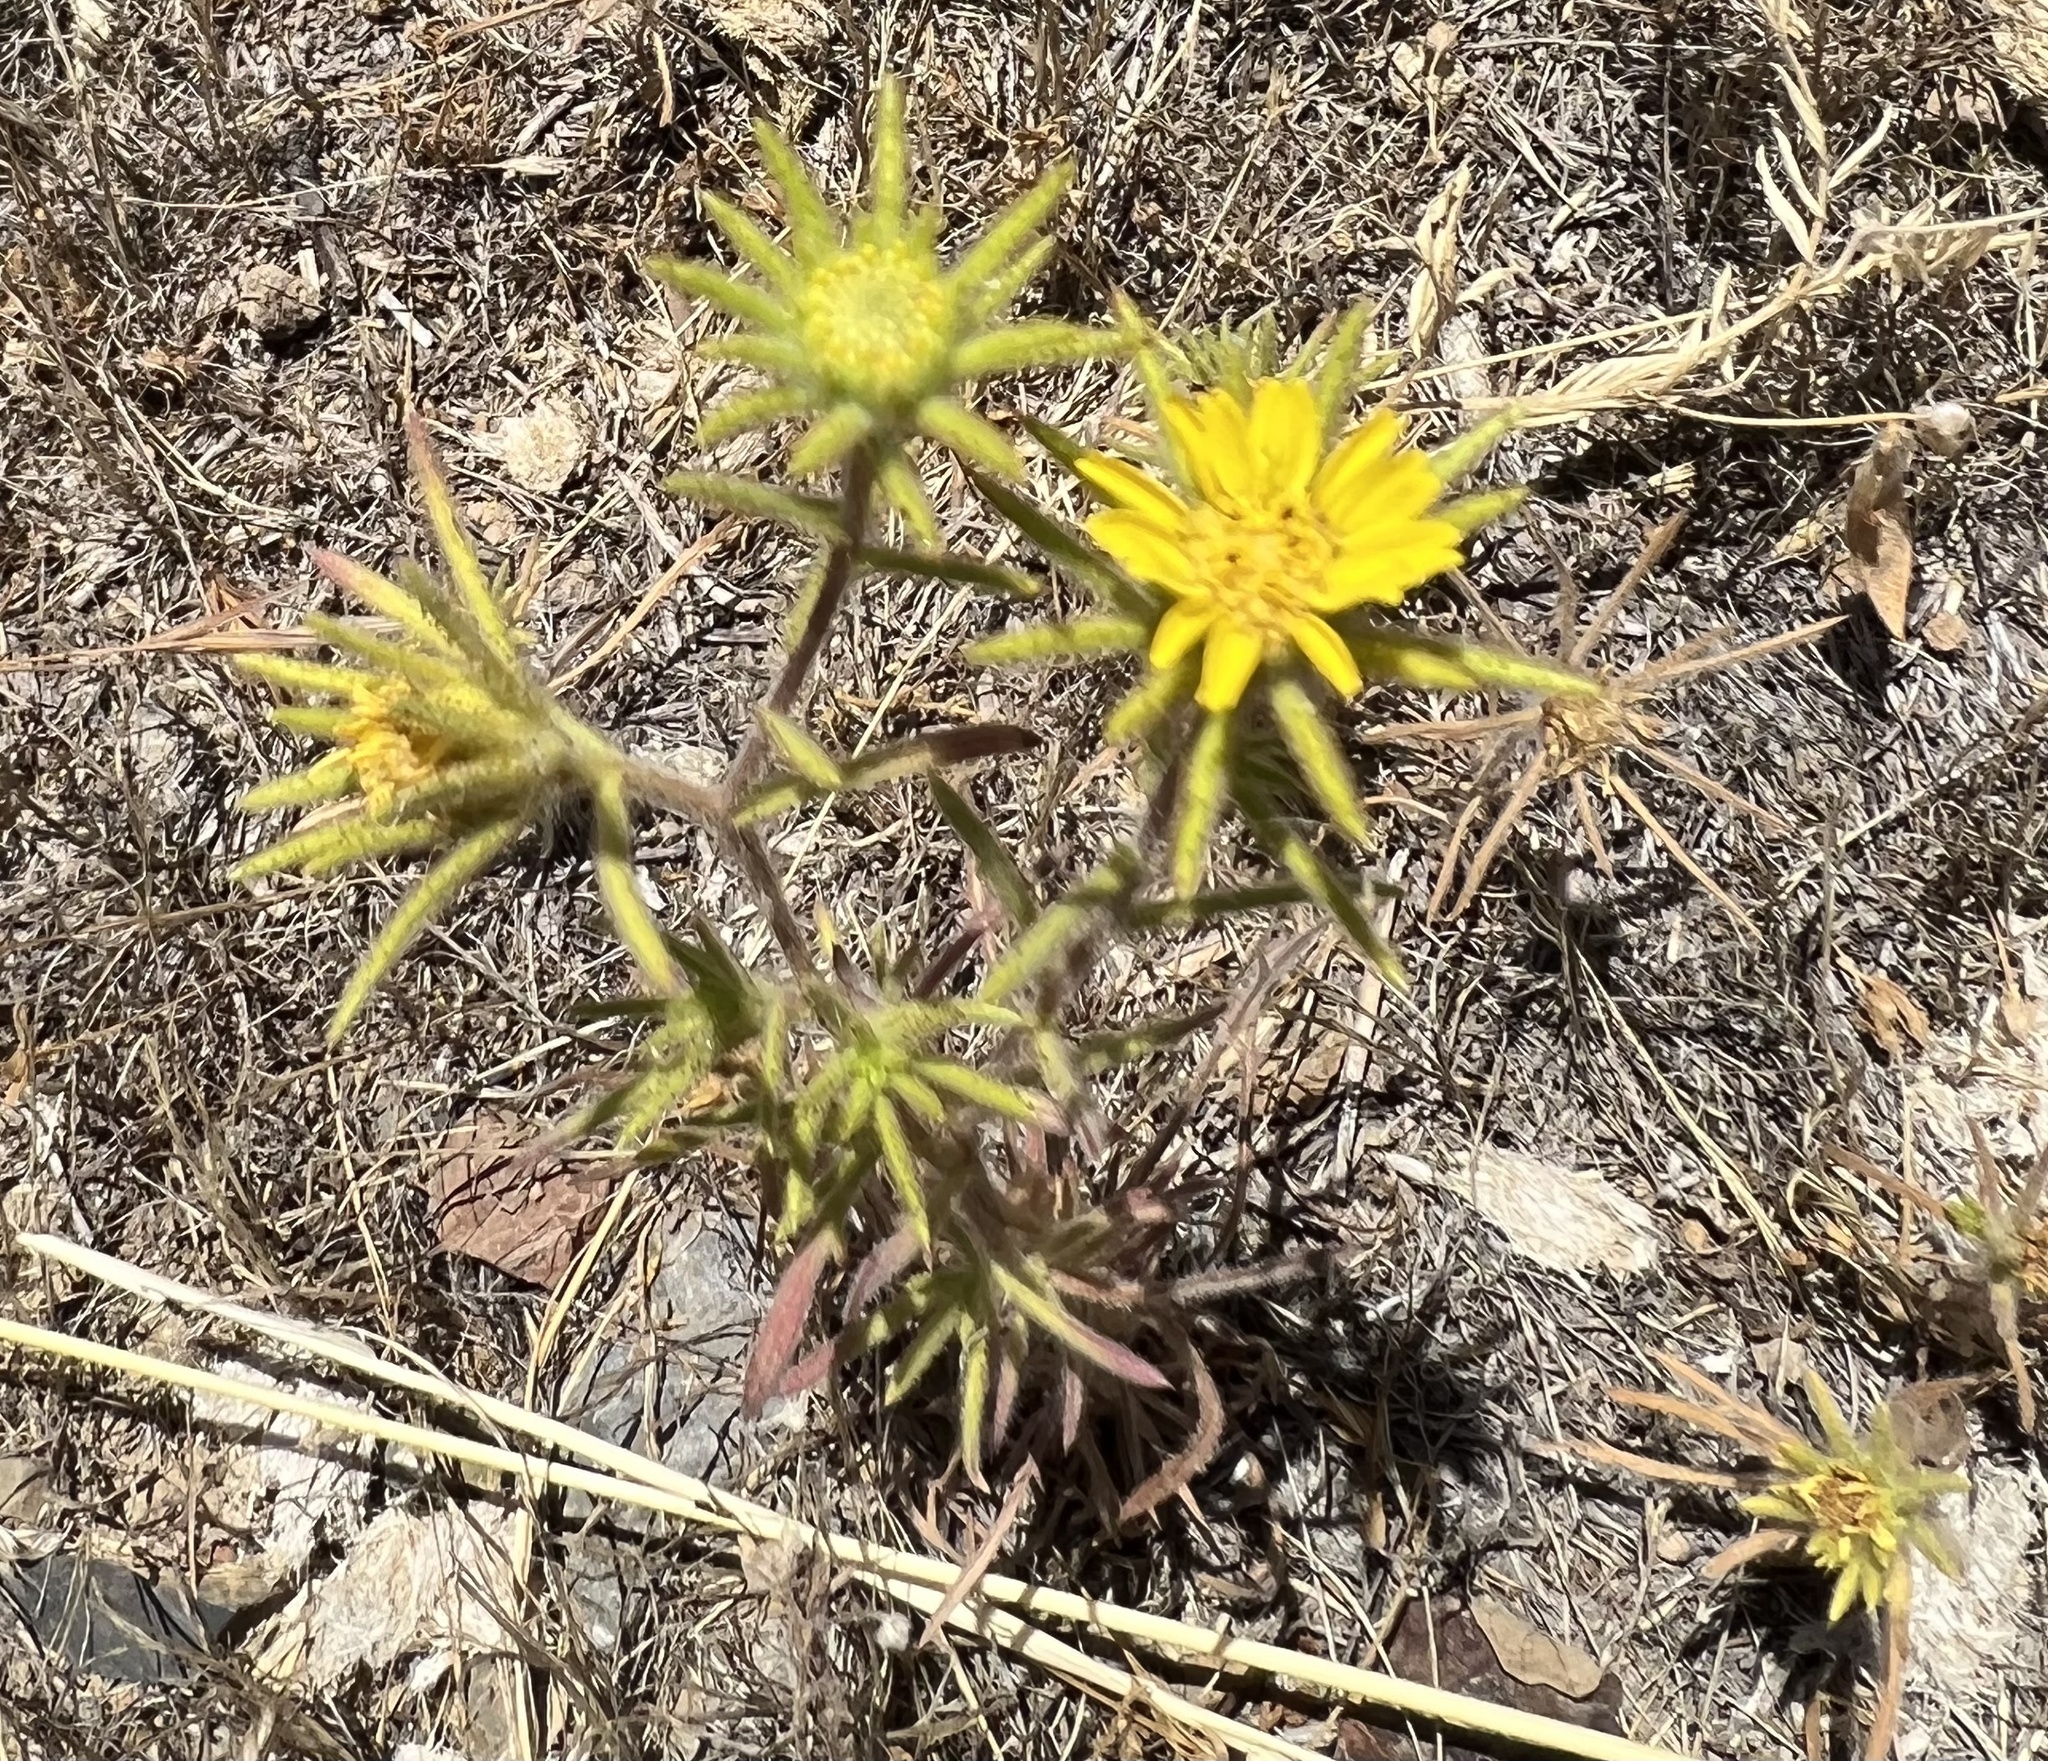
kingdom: Plantae
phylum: Tracheophyta
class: Magnoliopsida
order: Asterales
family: Asteraceae
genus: Centromadia
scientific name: Centromadia fitchii
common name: Fitch's spikeweed
